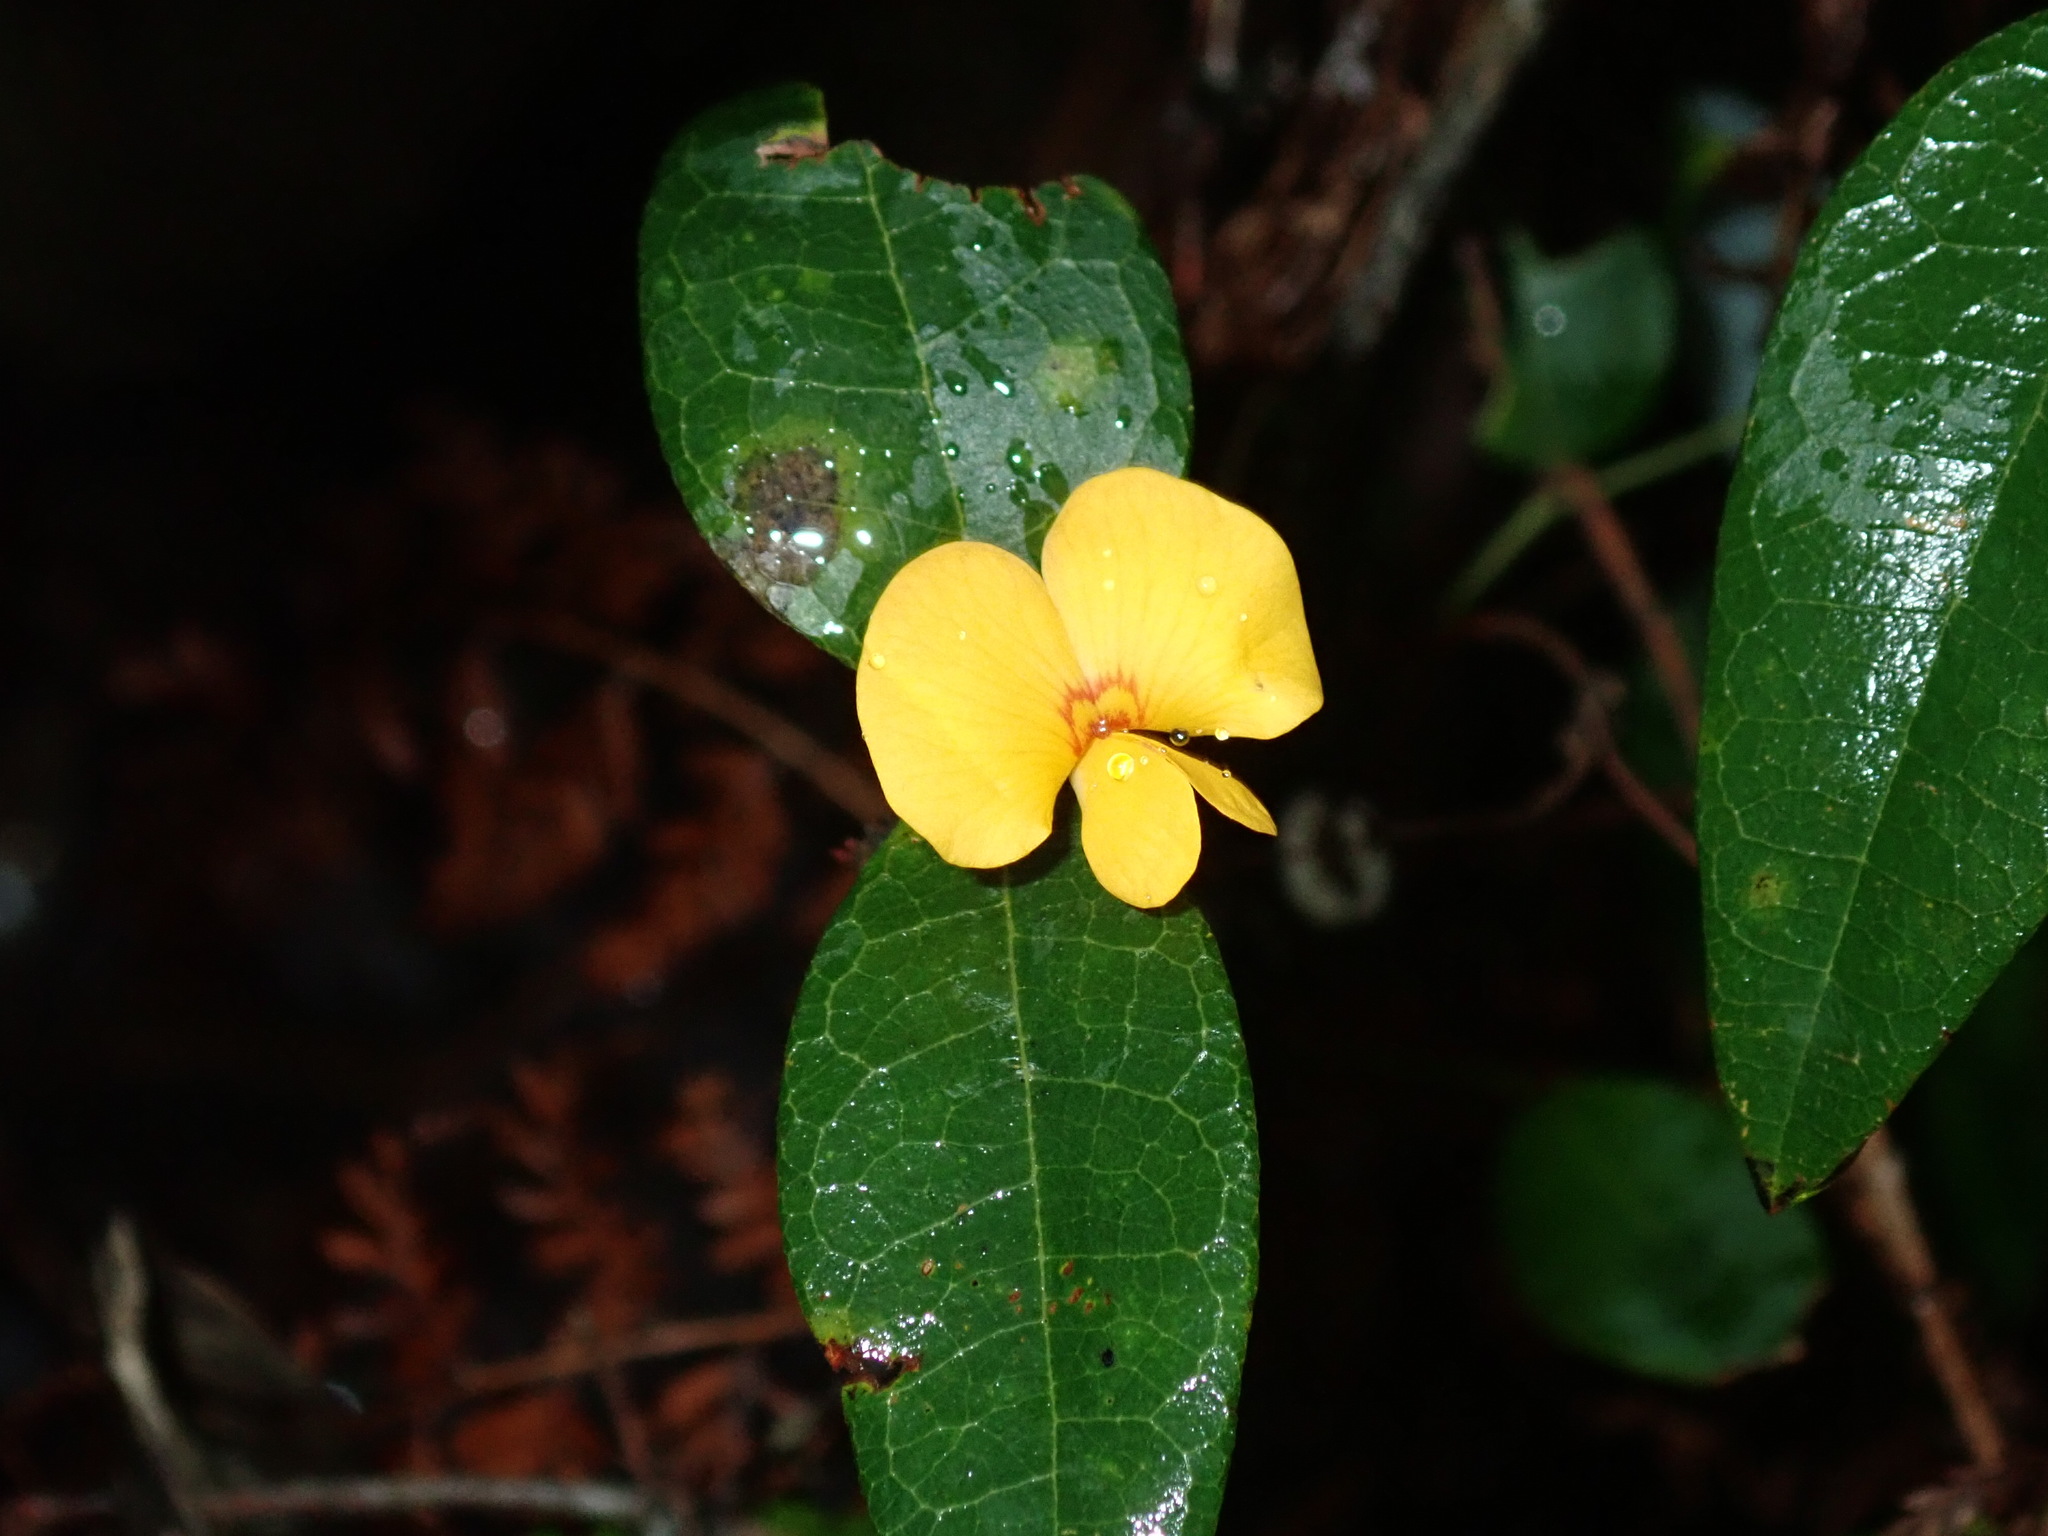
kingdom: Plantae
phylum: Tracheophyta
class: Magnoliopsida
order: Fabales
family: Fabaceae
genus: Platylobium
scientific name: Platylobium formosum
